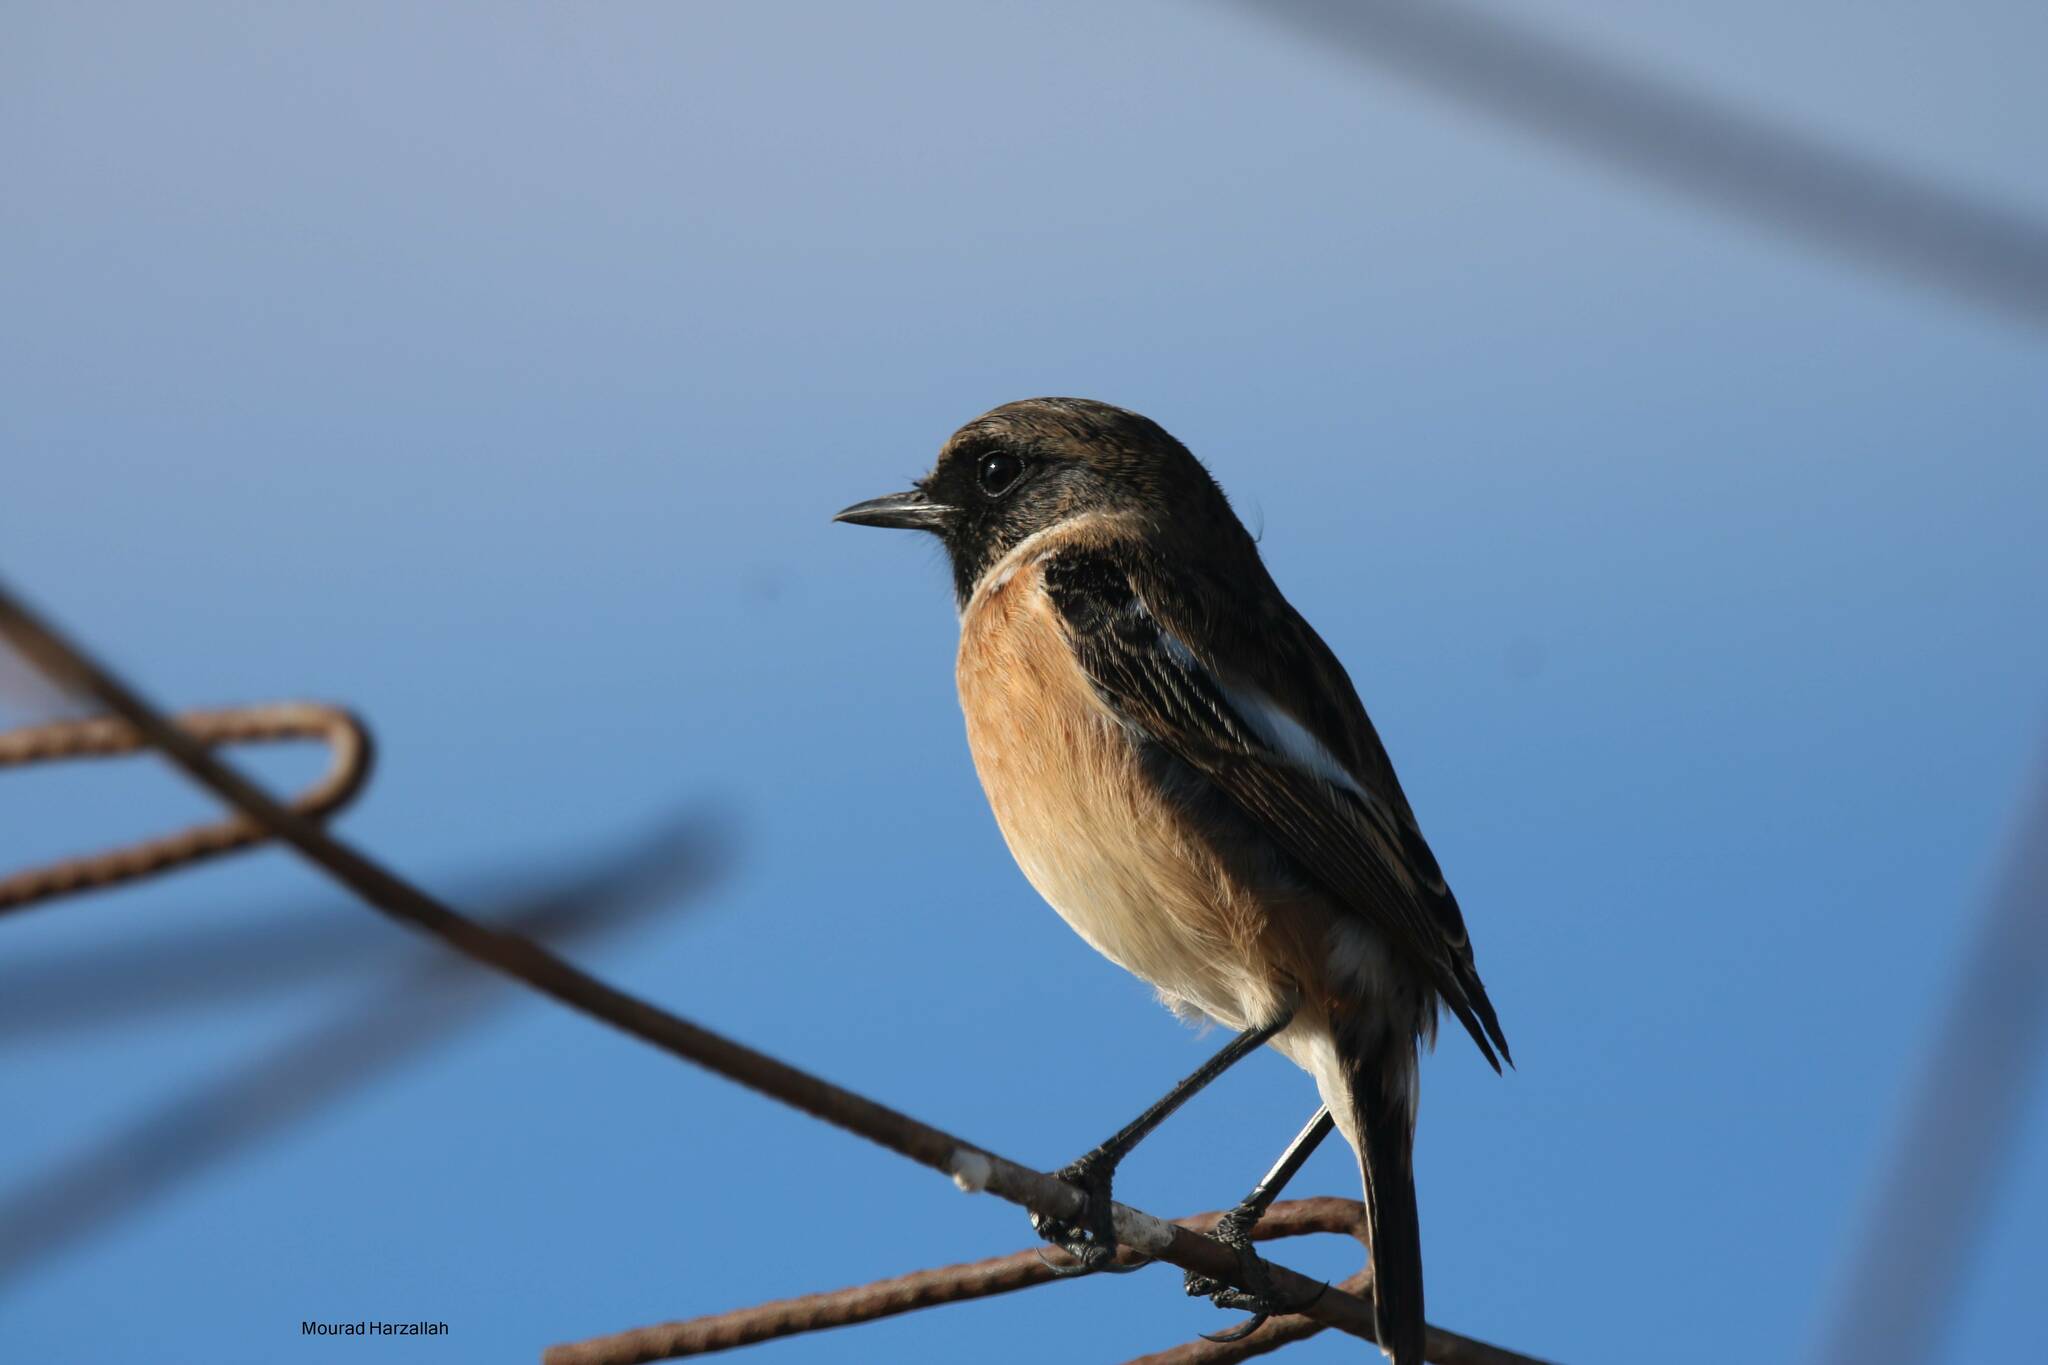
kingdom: Animalia
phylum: Chordata
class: Aves
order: Passeriformes
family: Muscicapidae
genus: Saxicola
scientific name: Saxicola rubicola
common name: European stonechat
